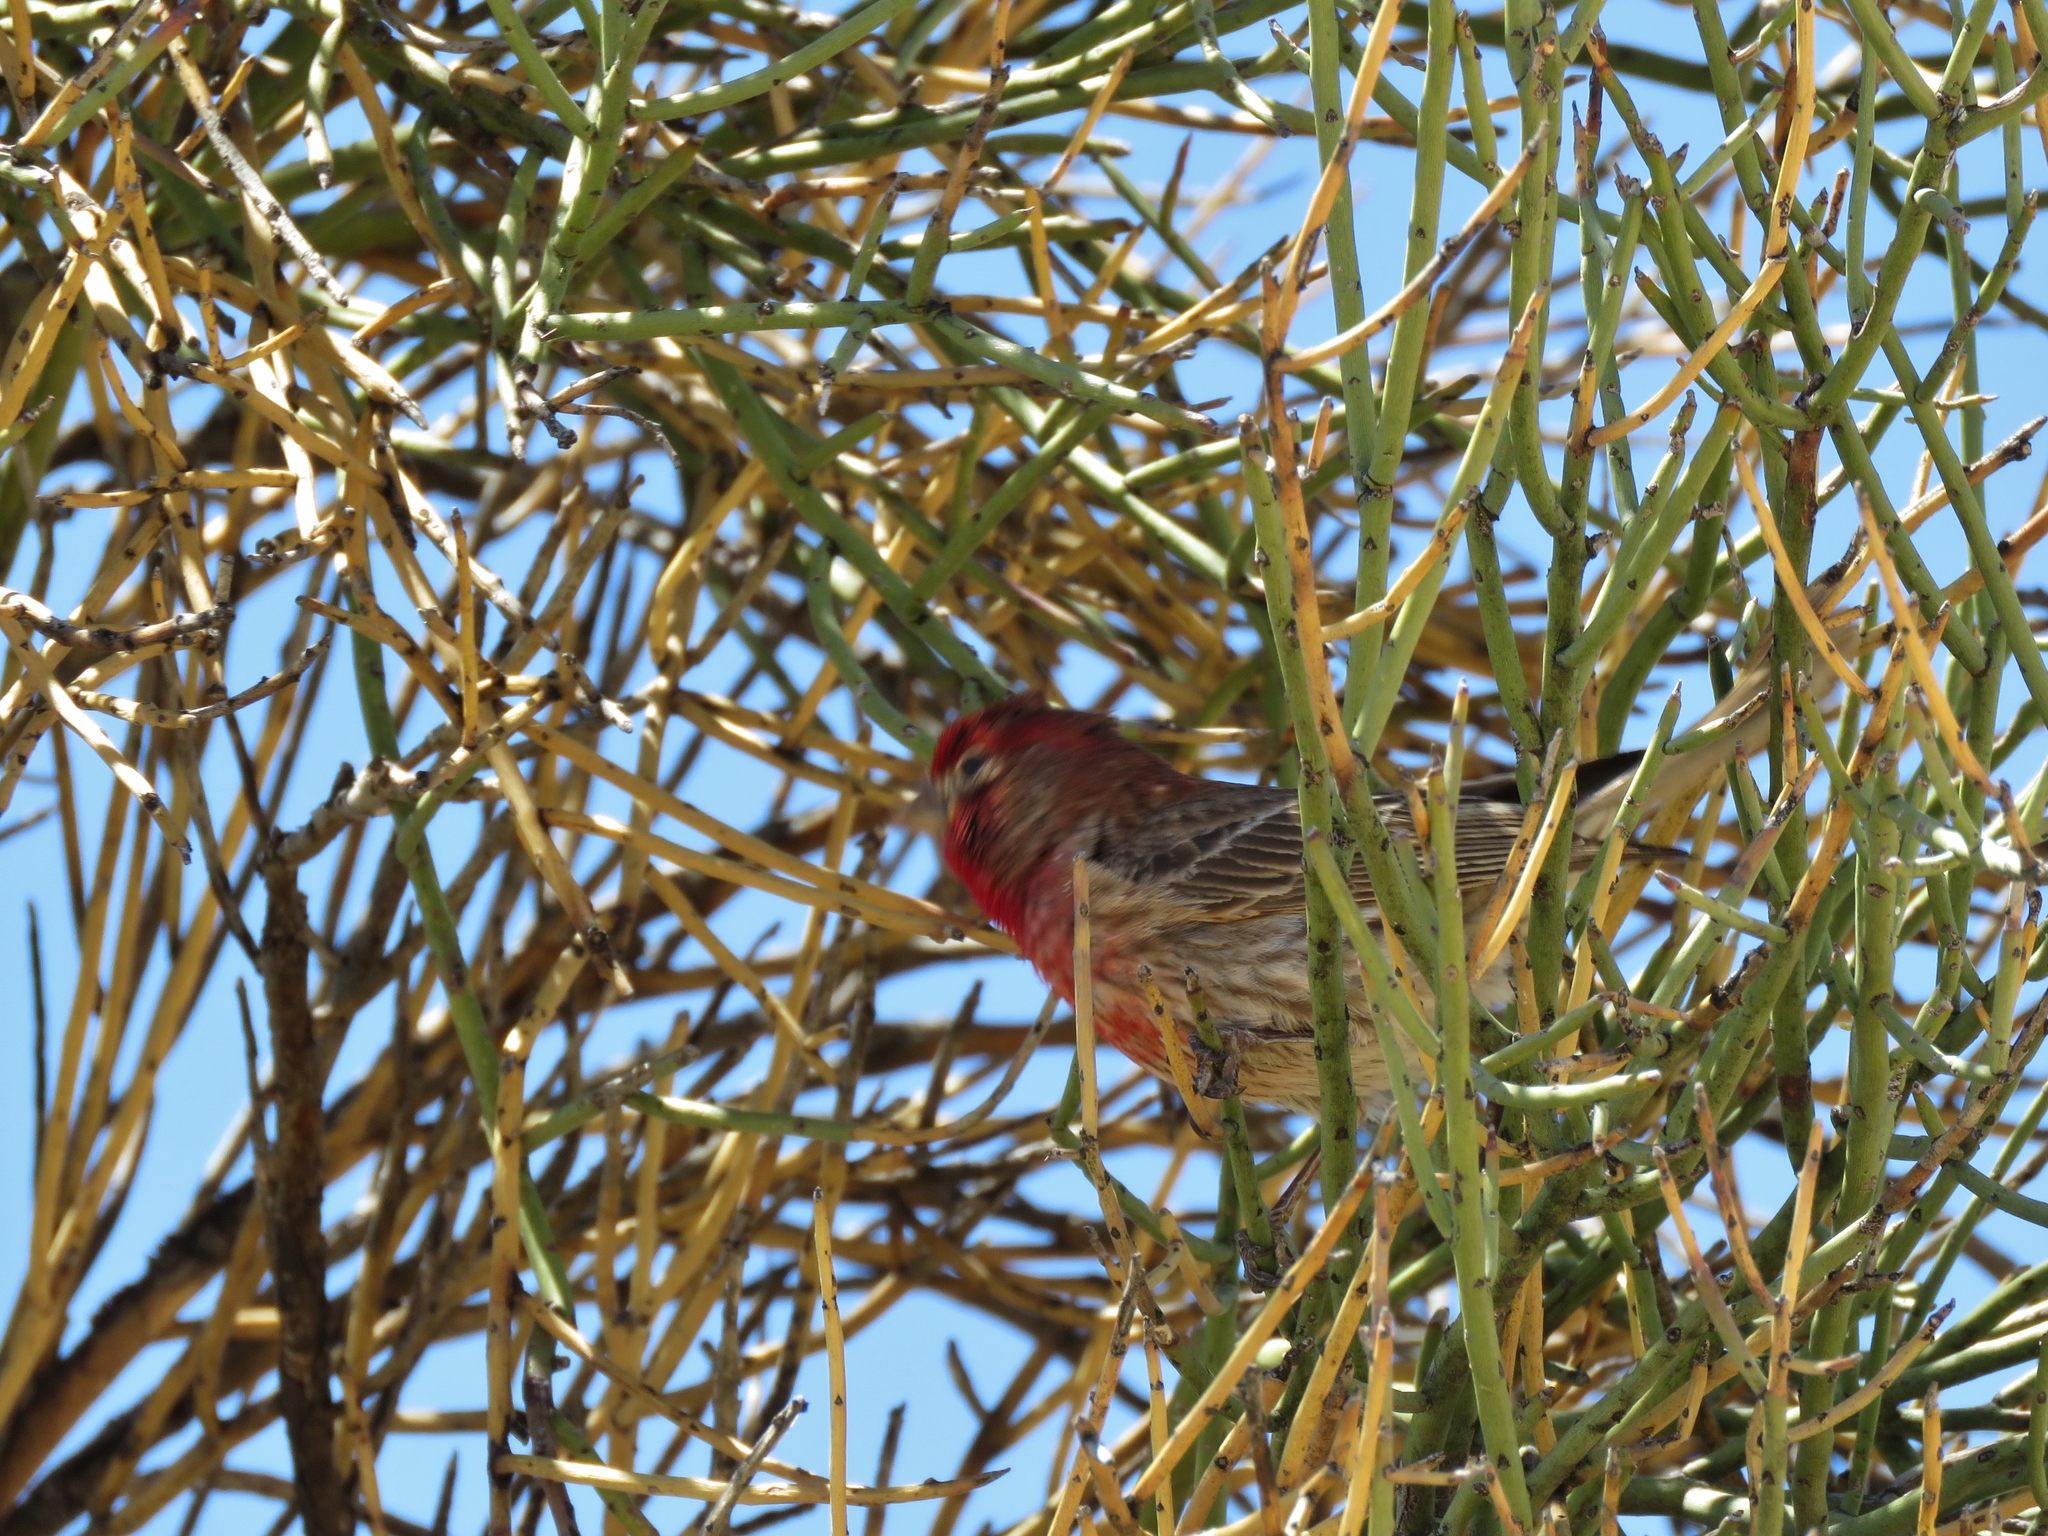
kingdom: Animalia
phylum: Chordata
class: Aves
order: Passeriformes
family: Fringillidae
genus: Haemorhous
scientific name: Haemorhous mexicanus
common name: House finch
